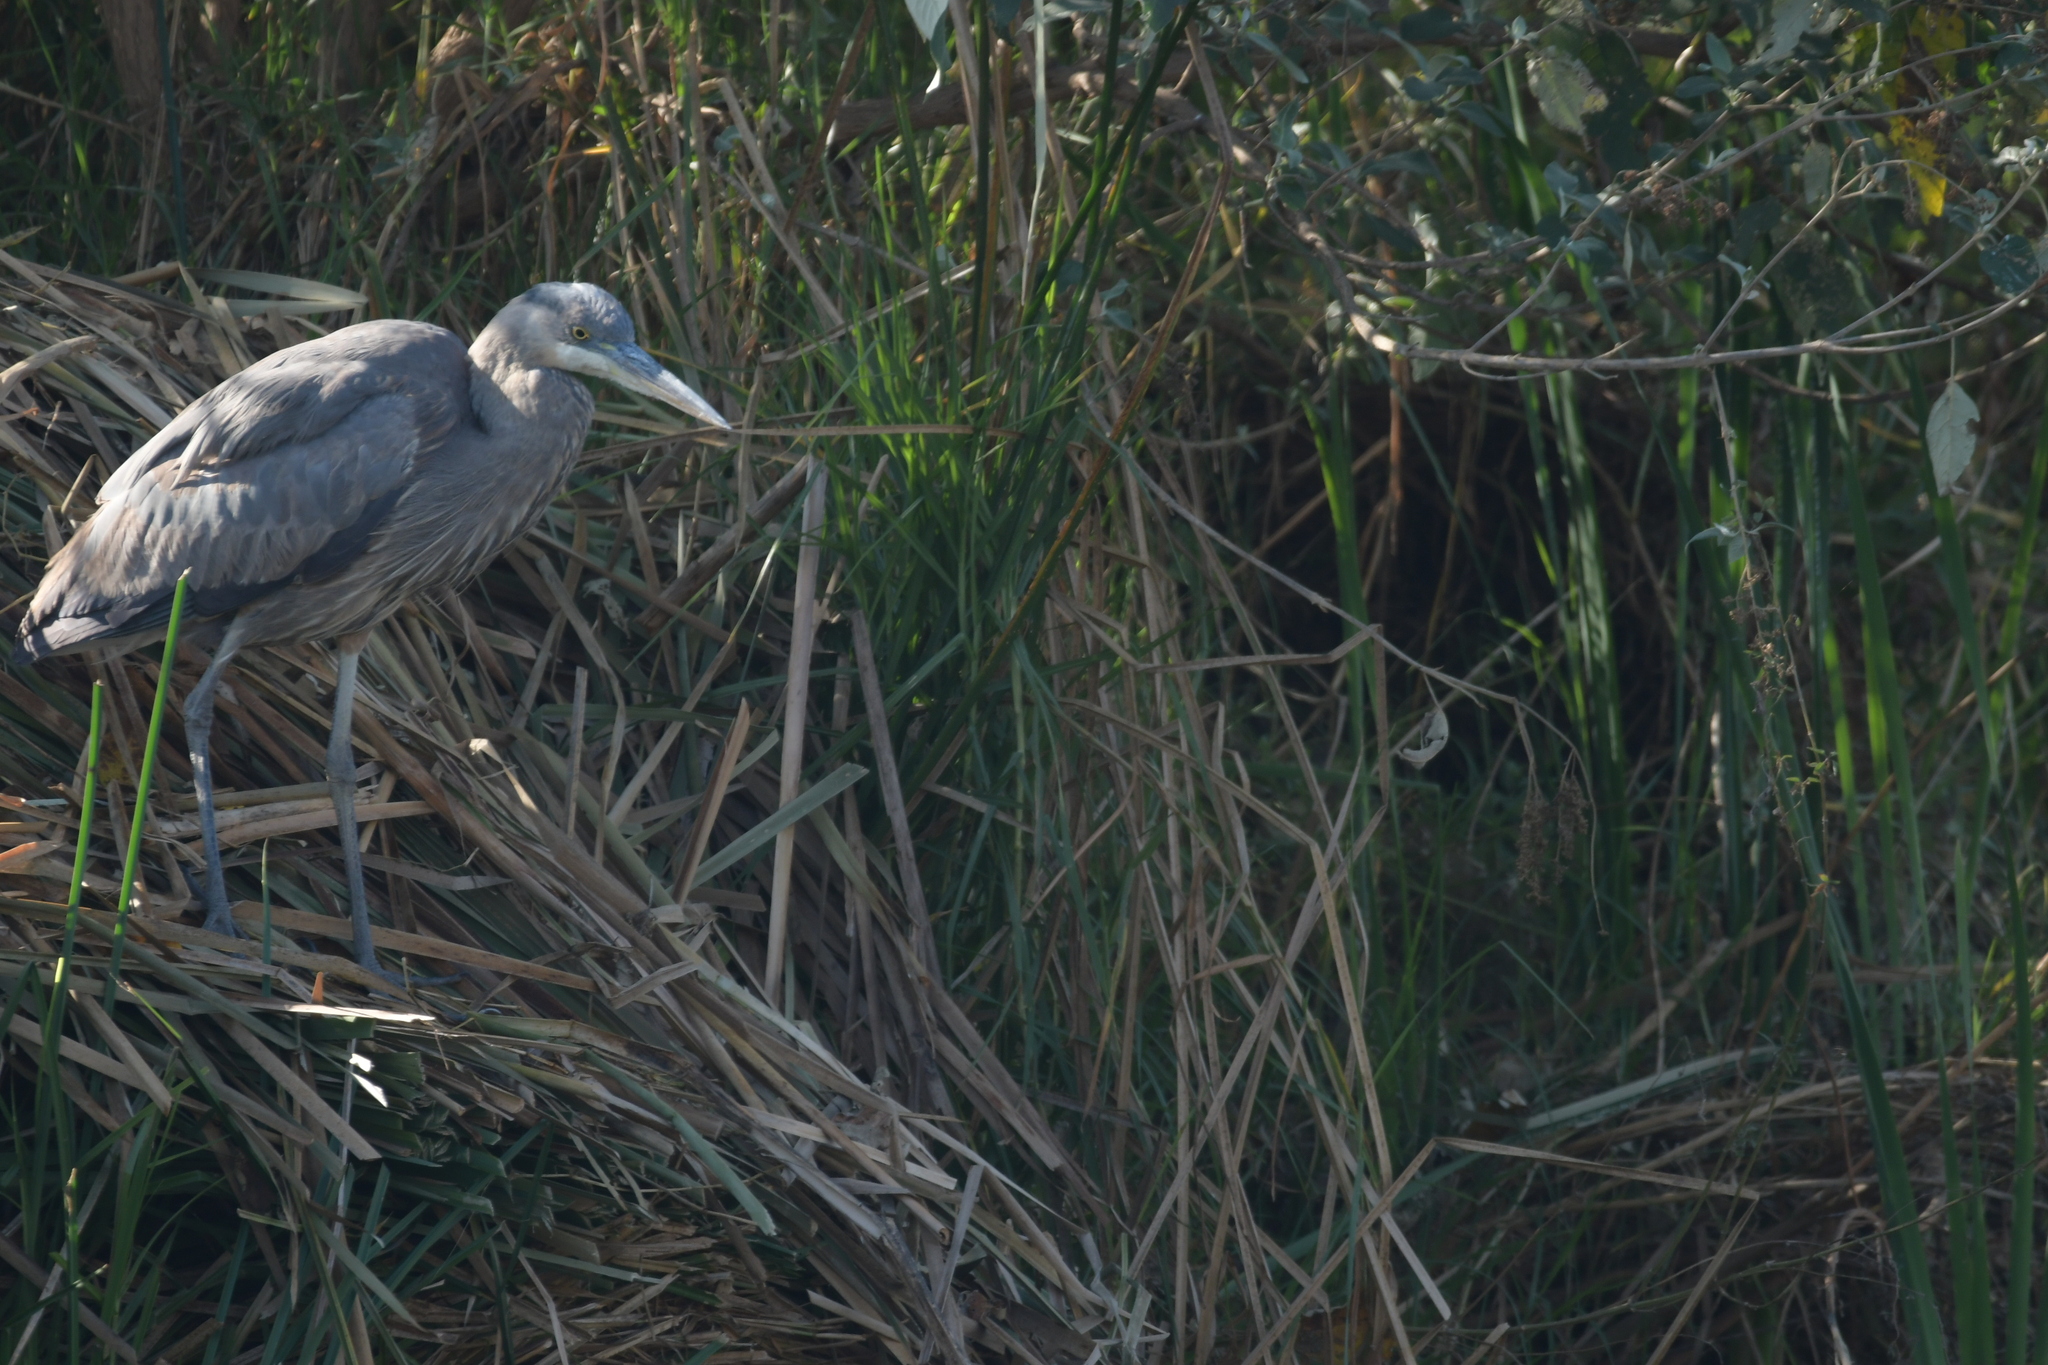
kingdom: Animalia
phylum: Chordata
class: Aves
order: Pelecaniformes
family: Ardeidae
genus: Ardea
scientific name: Ardea herodias
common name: Great blue heron
